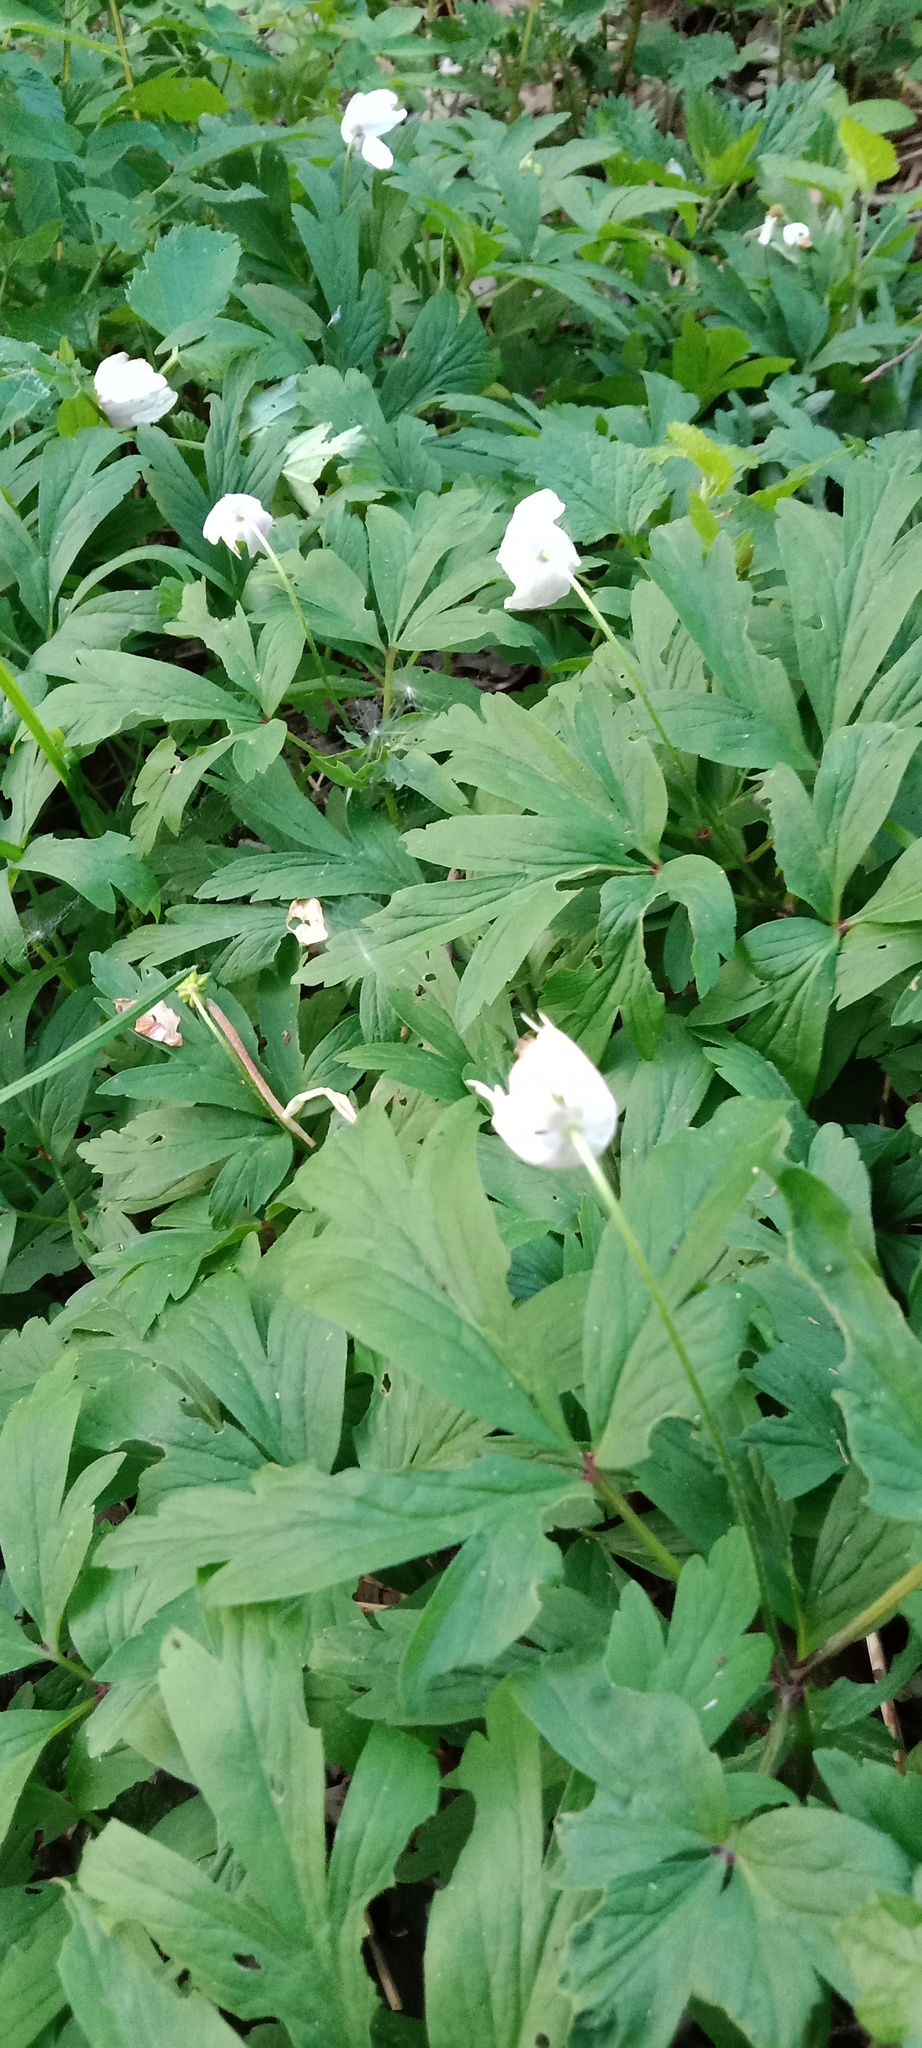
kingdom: Plantae
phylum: Tracheophyta
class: Magnoliopsida
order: Ranunculales
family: Ranunculaceae
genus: Anemone
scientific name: Anemone nemorosa
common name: Wood anemone
